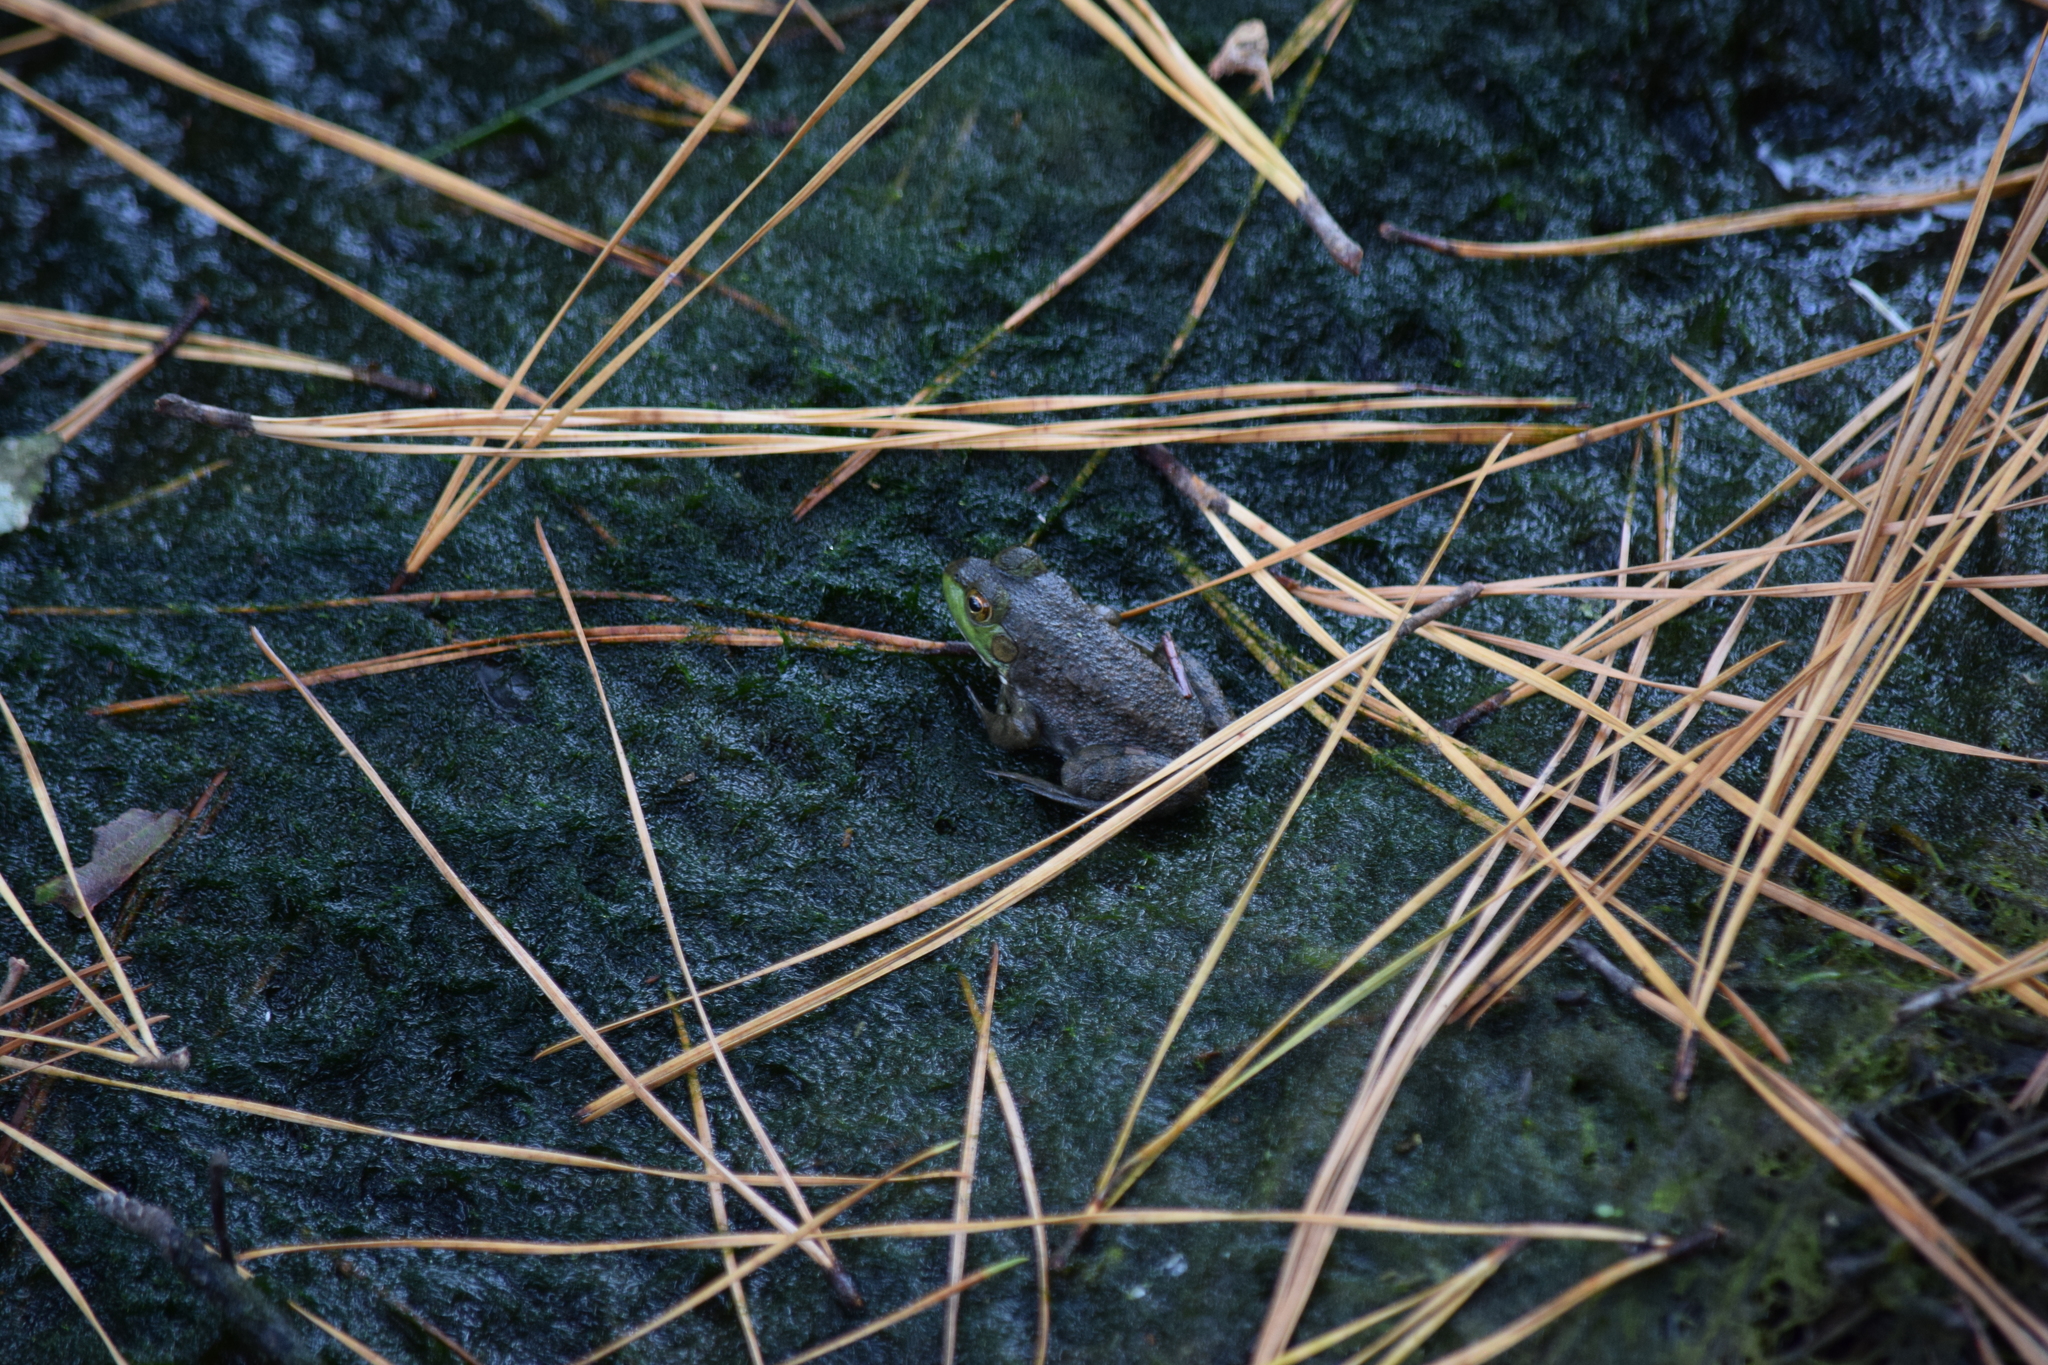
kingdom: Animalia
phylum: Chordata
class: Amphibia
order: Anura
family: Ranidae
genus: Lithobates
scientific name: Lithobates catesbeianus
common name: American bullfrog
